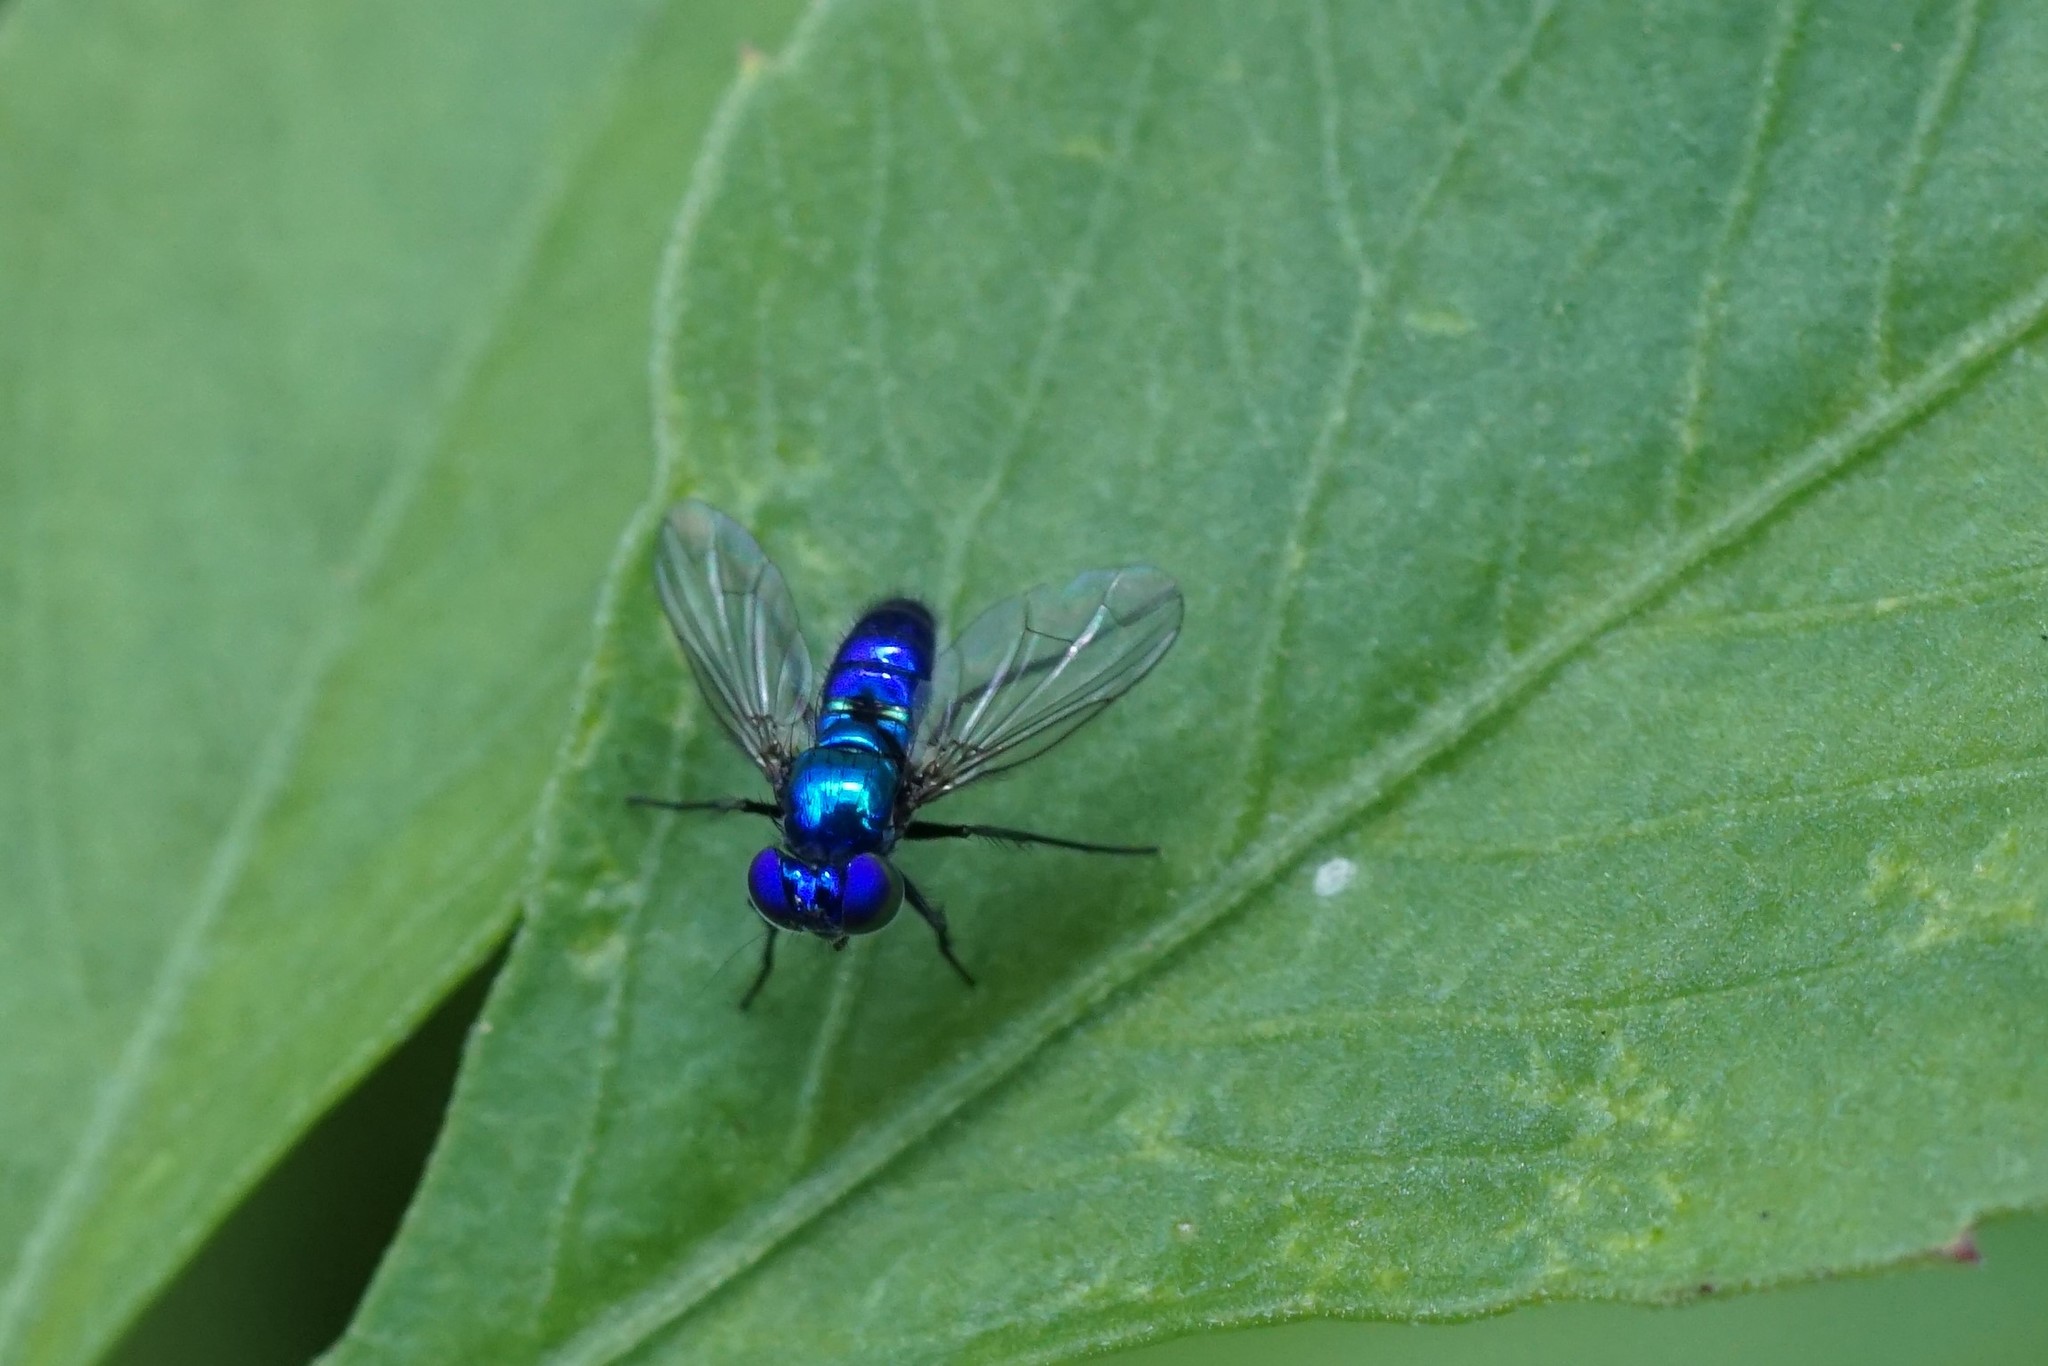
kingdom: Animalia
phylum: Arthropoda
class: Insecta
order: Diptera
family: Dolichopodidae
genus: Condylostylus
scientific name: Condylostylus mundus
